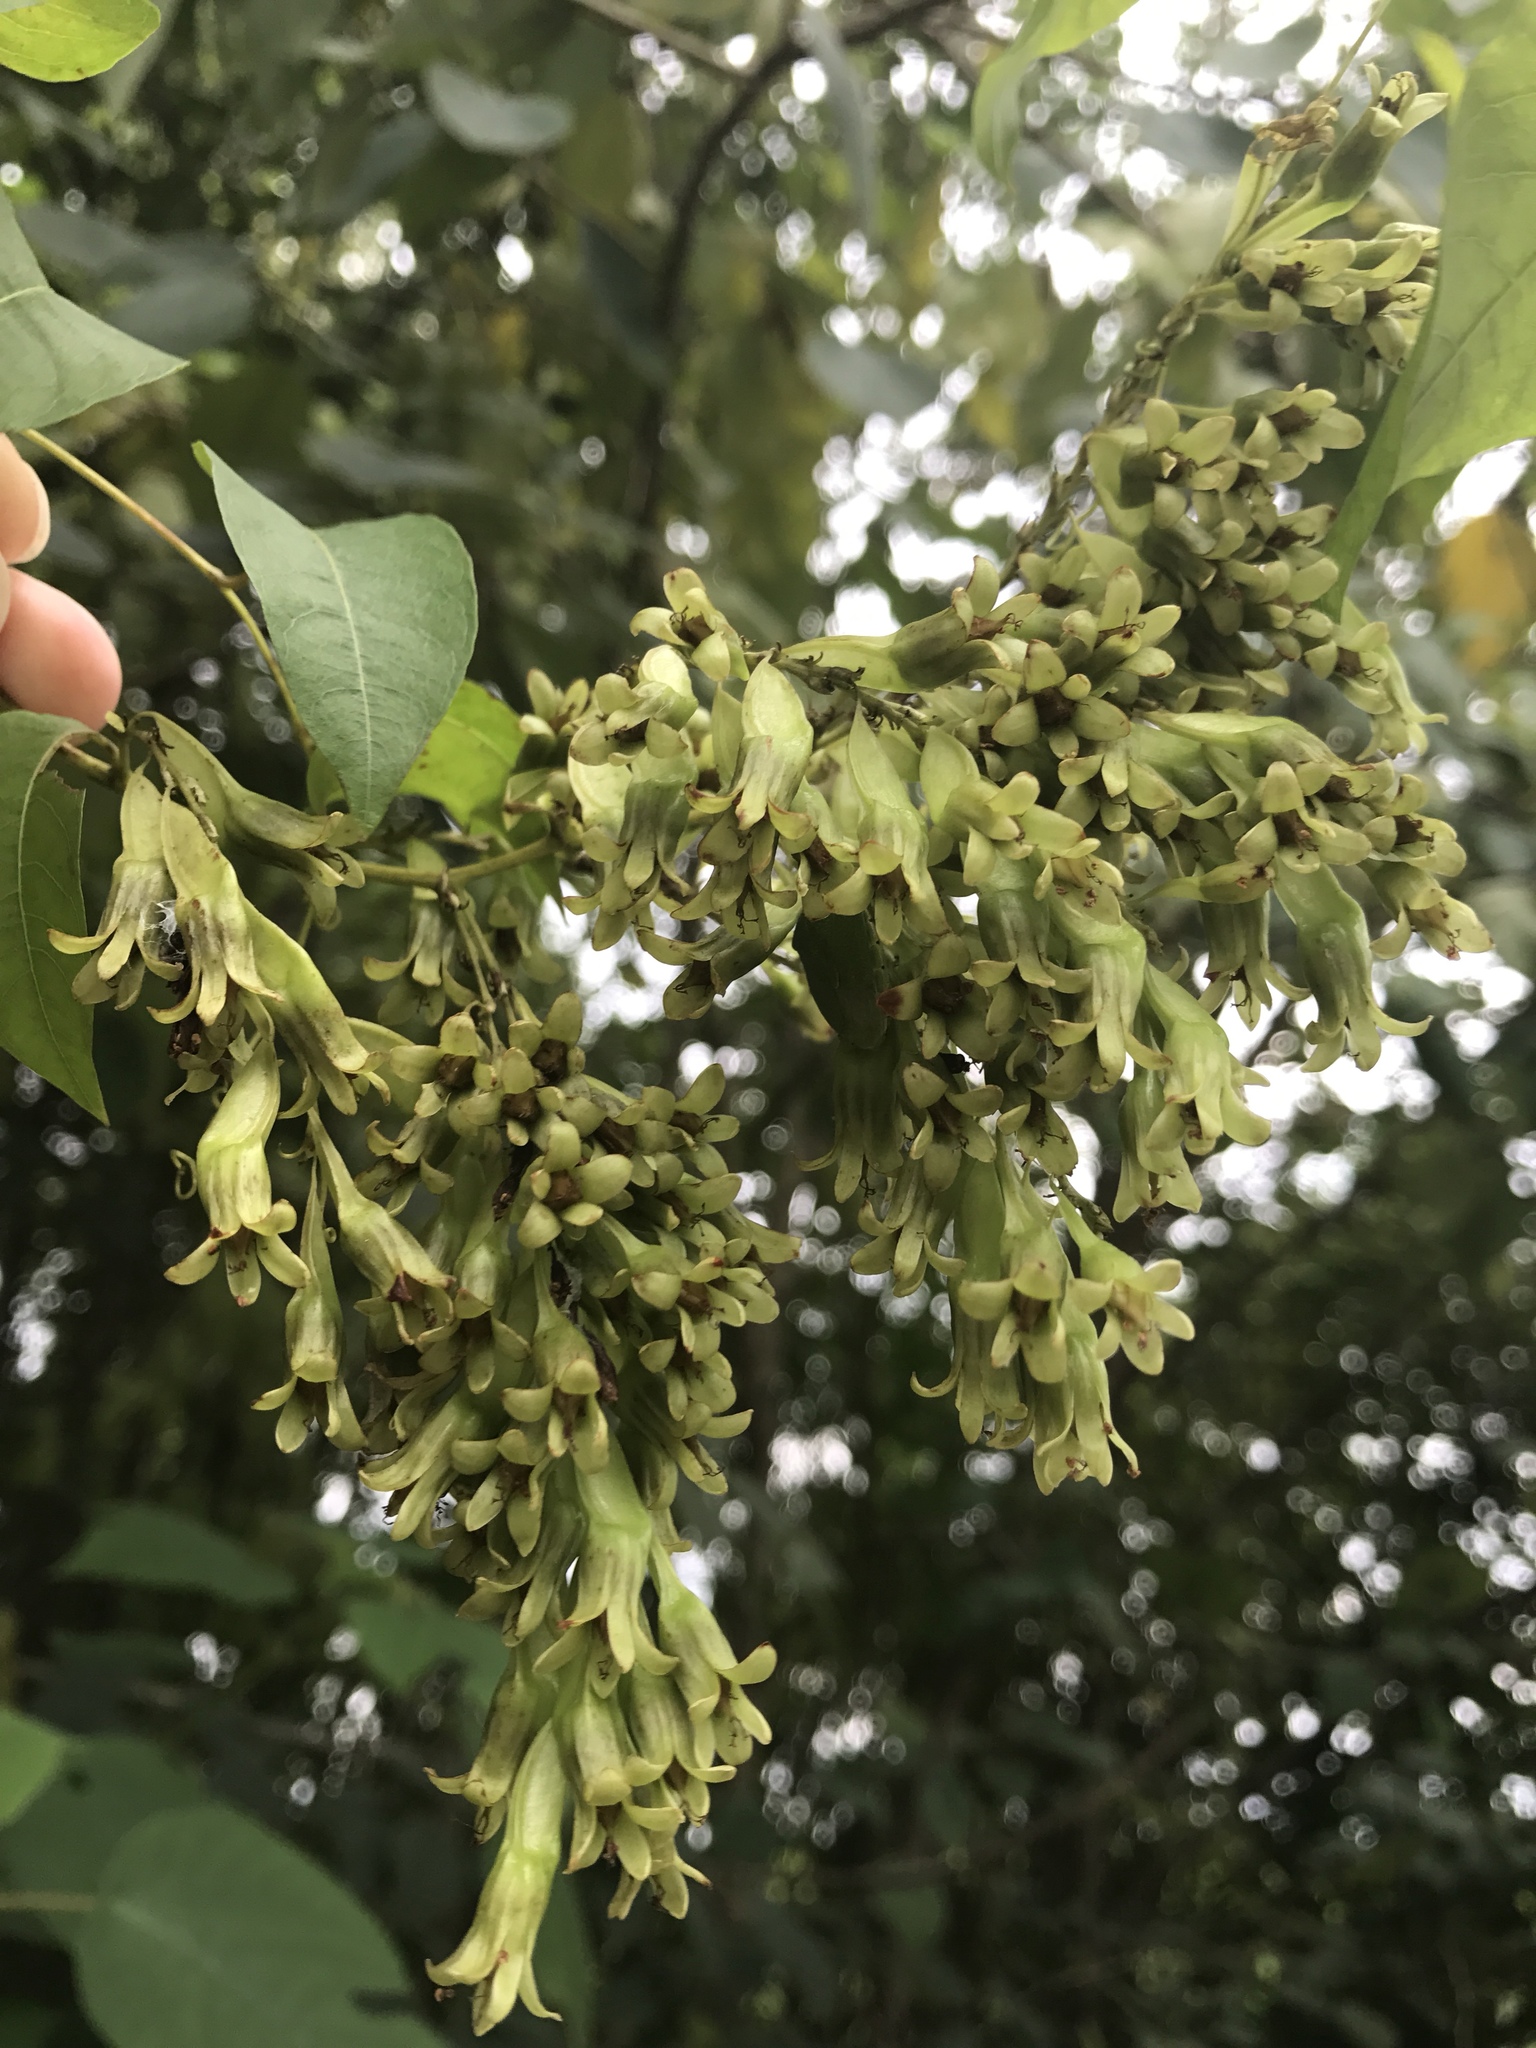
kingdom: Plantae
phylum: Tracheophyta
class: Magnoliopsida
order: Caryophyllales
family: Polygonaceae
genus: Brunnichia
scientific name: Brunnichia ovata
